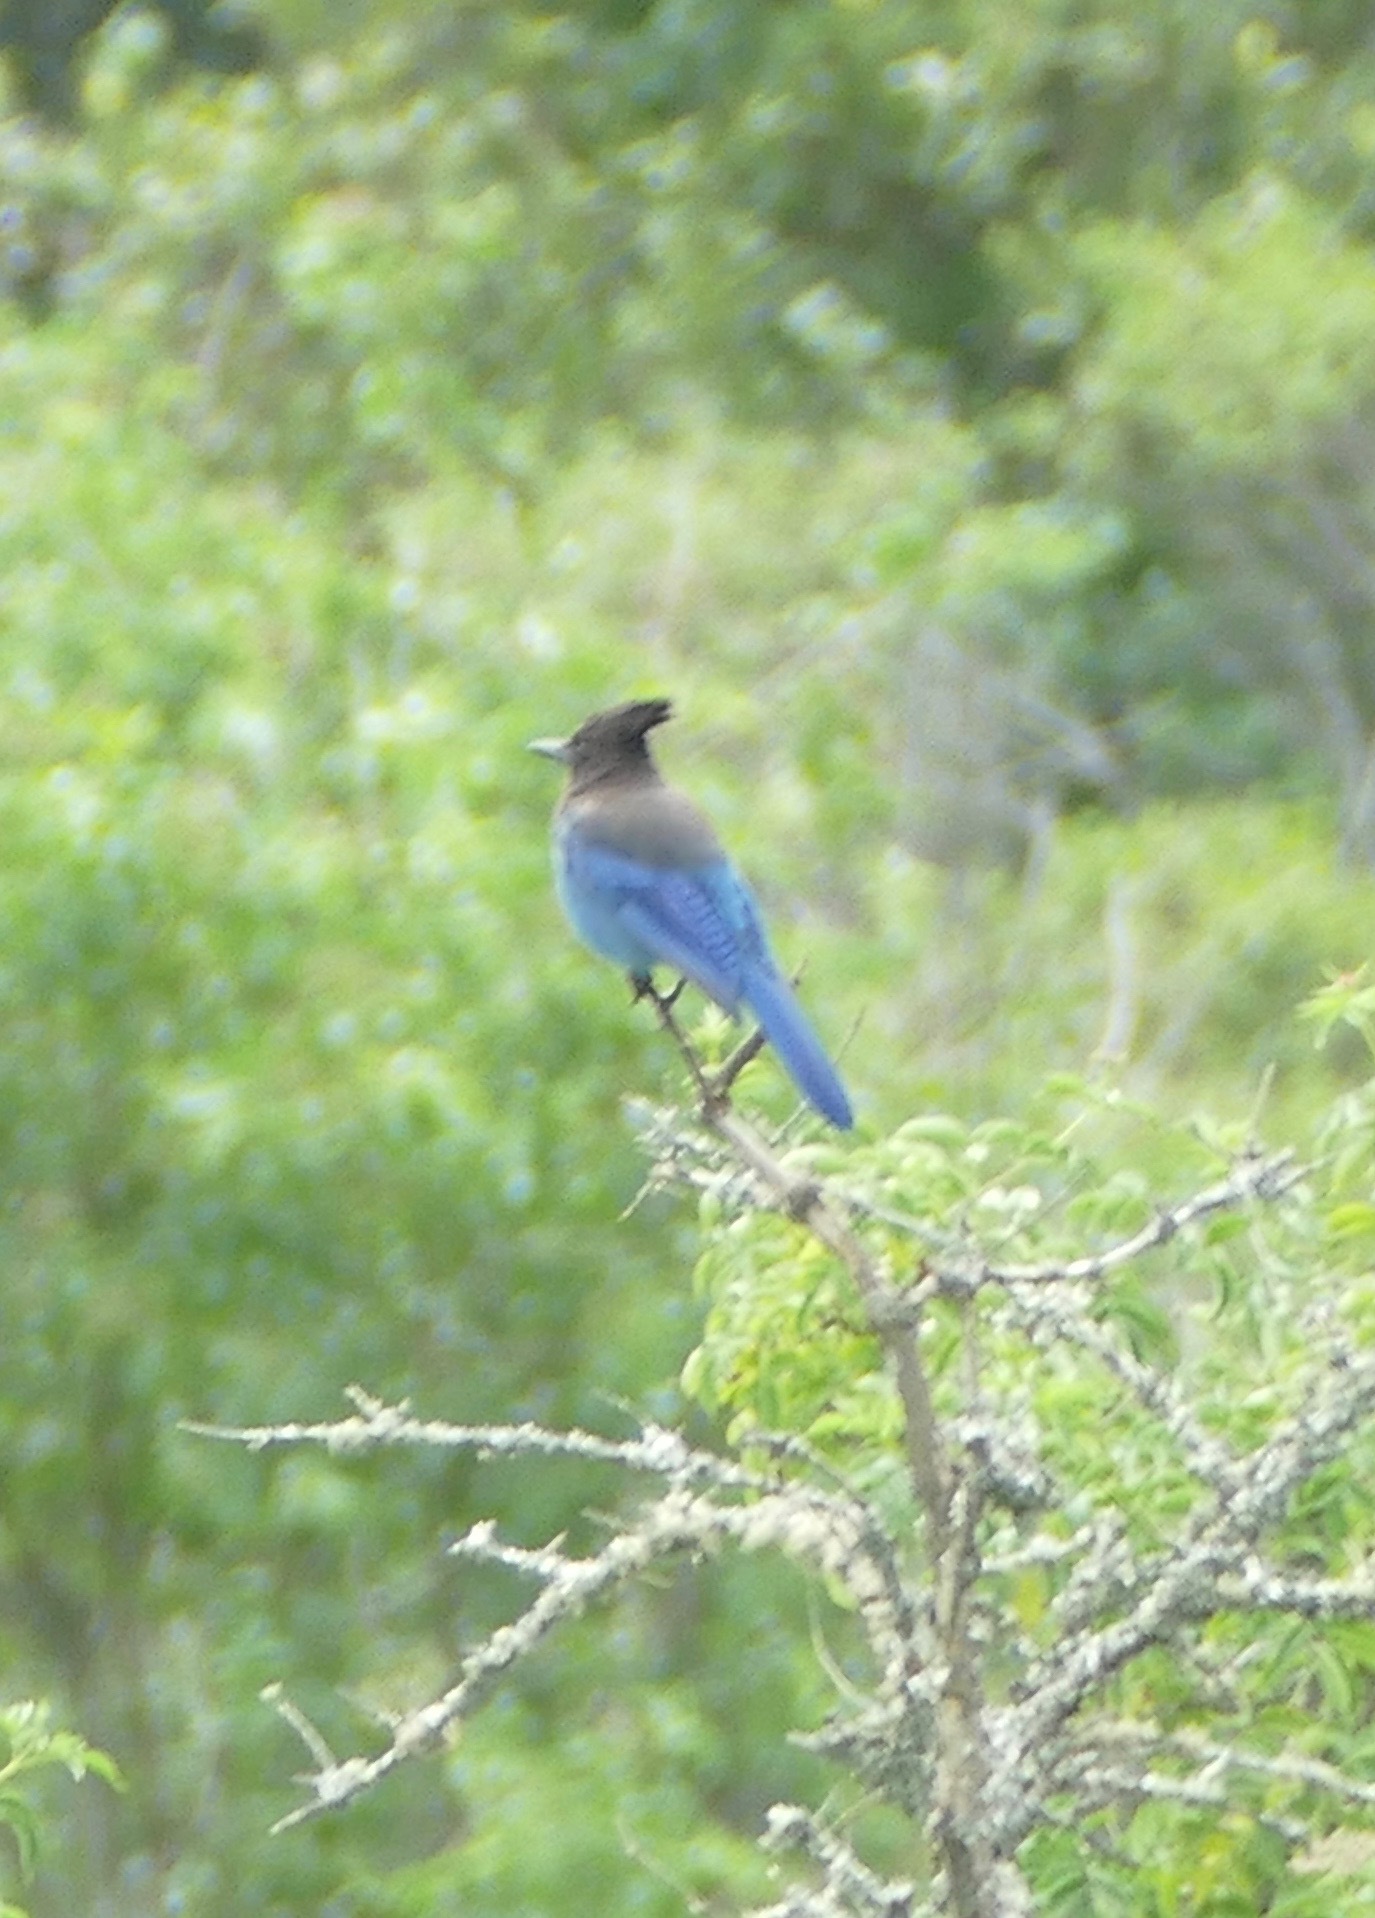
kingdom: Animalia
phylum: Chordata
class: Aves
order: Passeriformes
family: Corvidae
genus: Cyanocitta
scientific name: Cyanocitta stelleri
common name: Steller's jay
